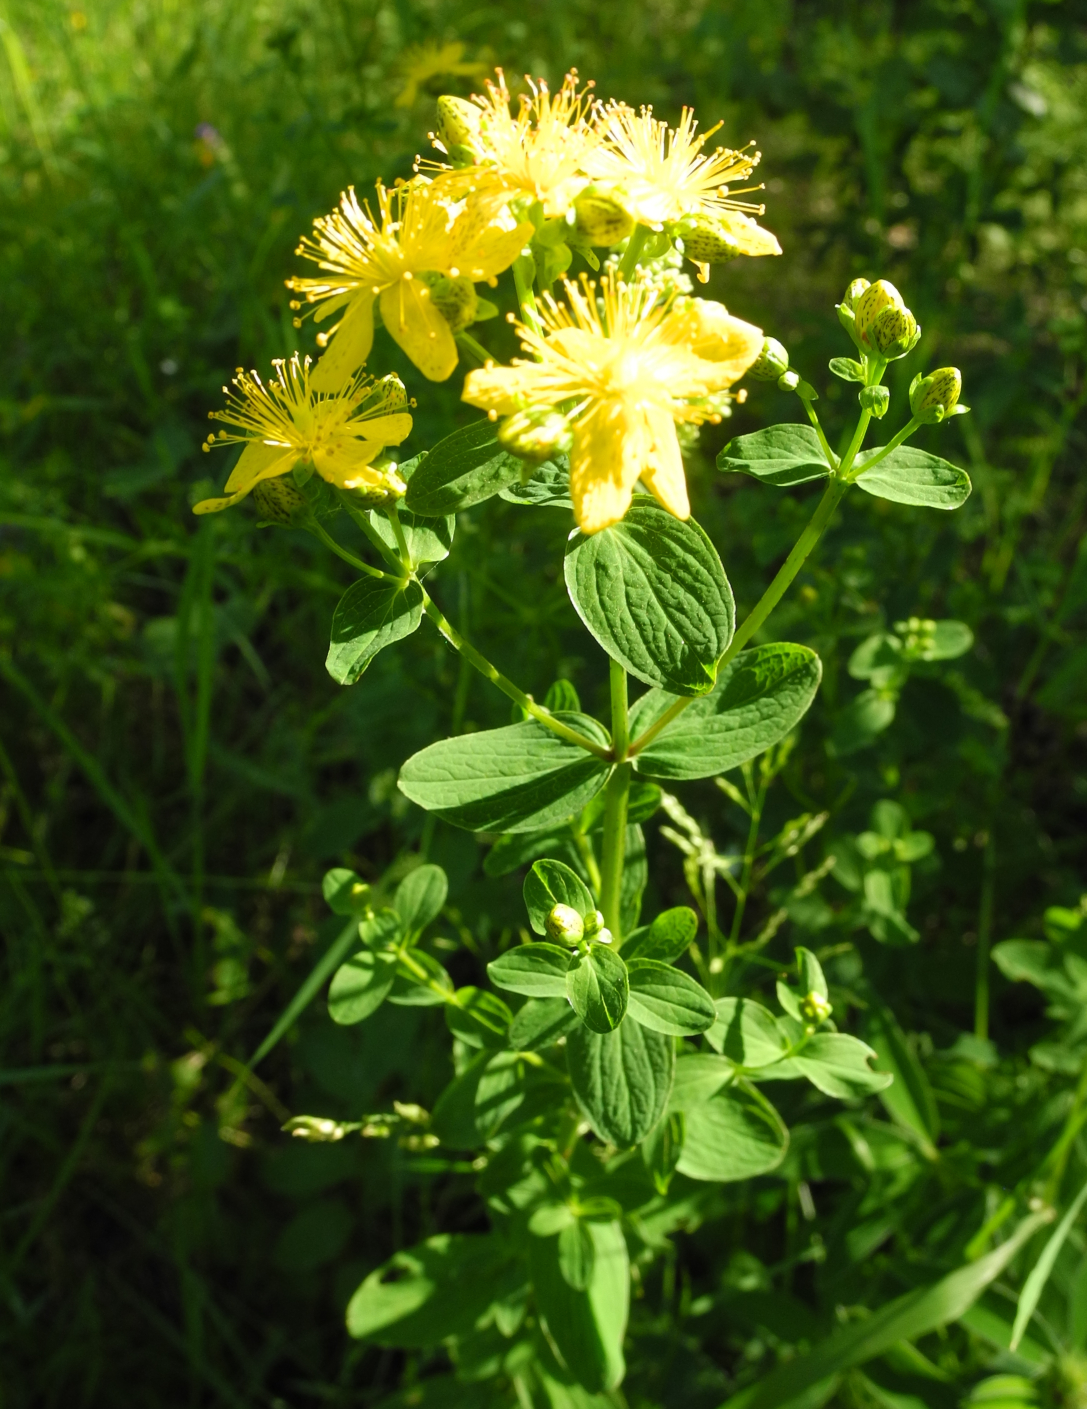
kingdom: Plantae
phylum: Tracheophyta
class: Magnoliopsida
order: Malpighiales
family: Hypericaceae
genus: Hypericum
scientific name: Hypericum maculatum
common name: Imperforate st. john's-wort
